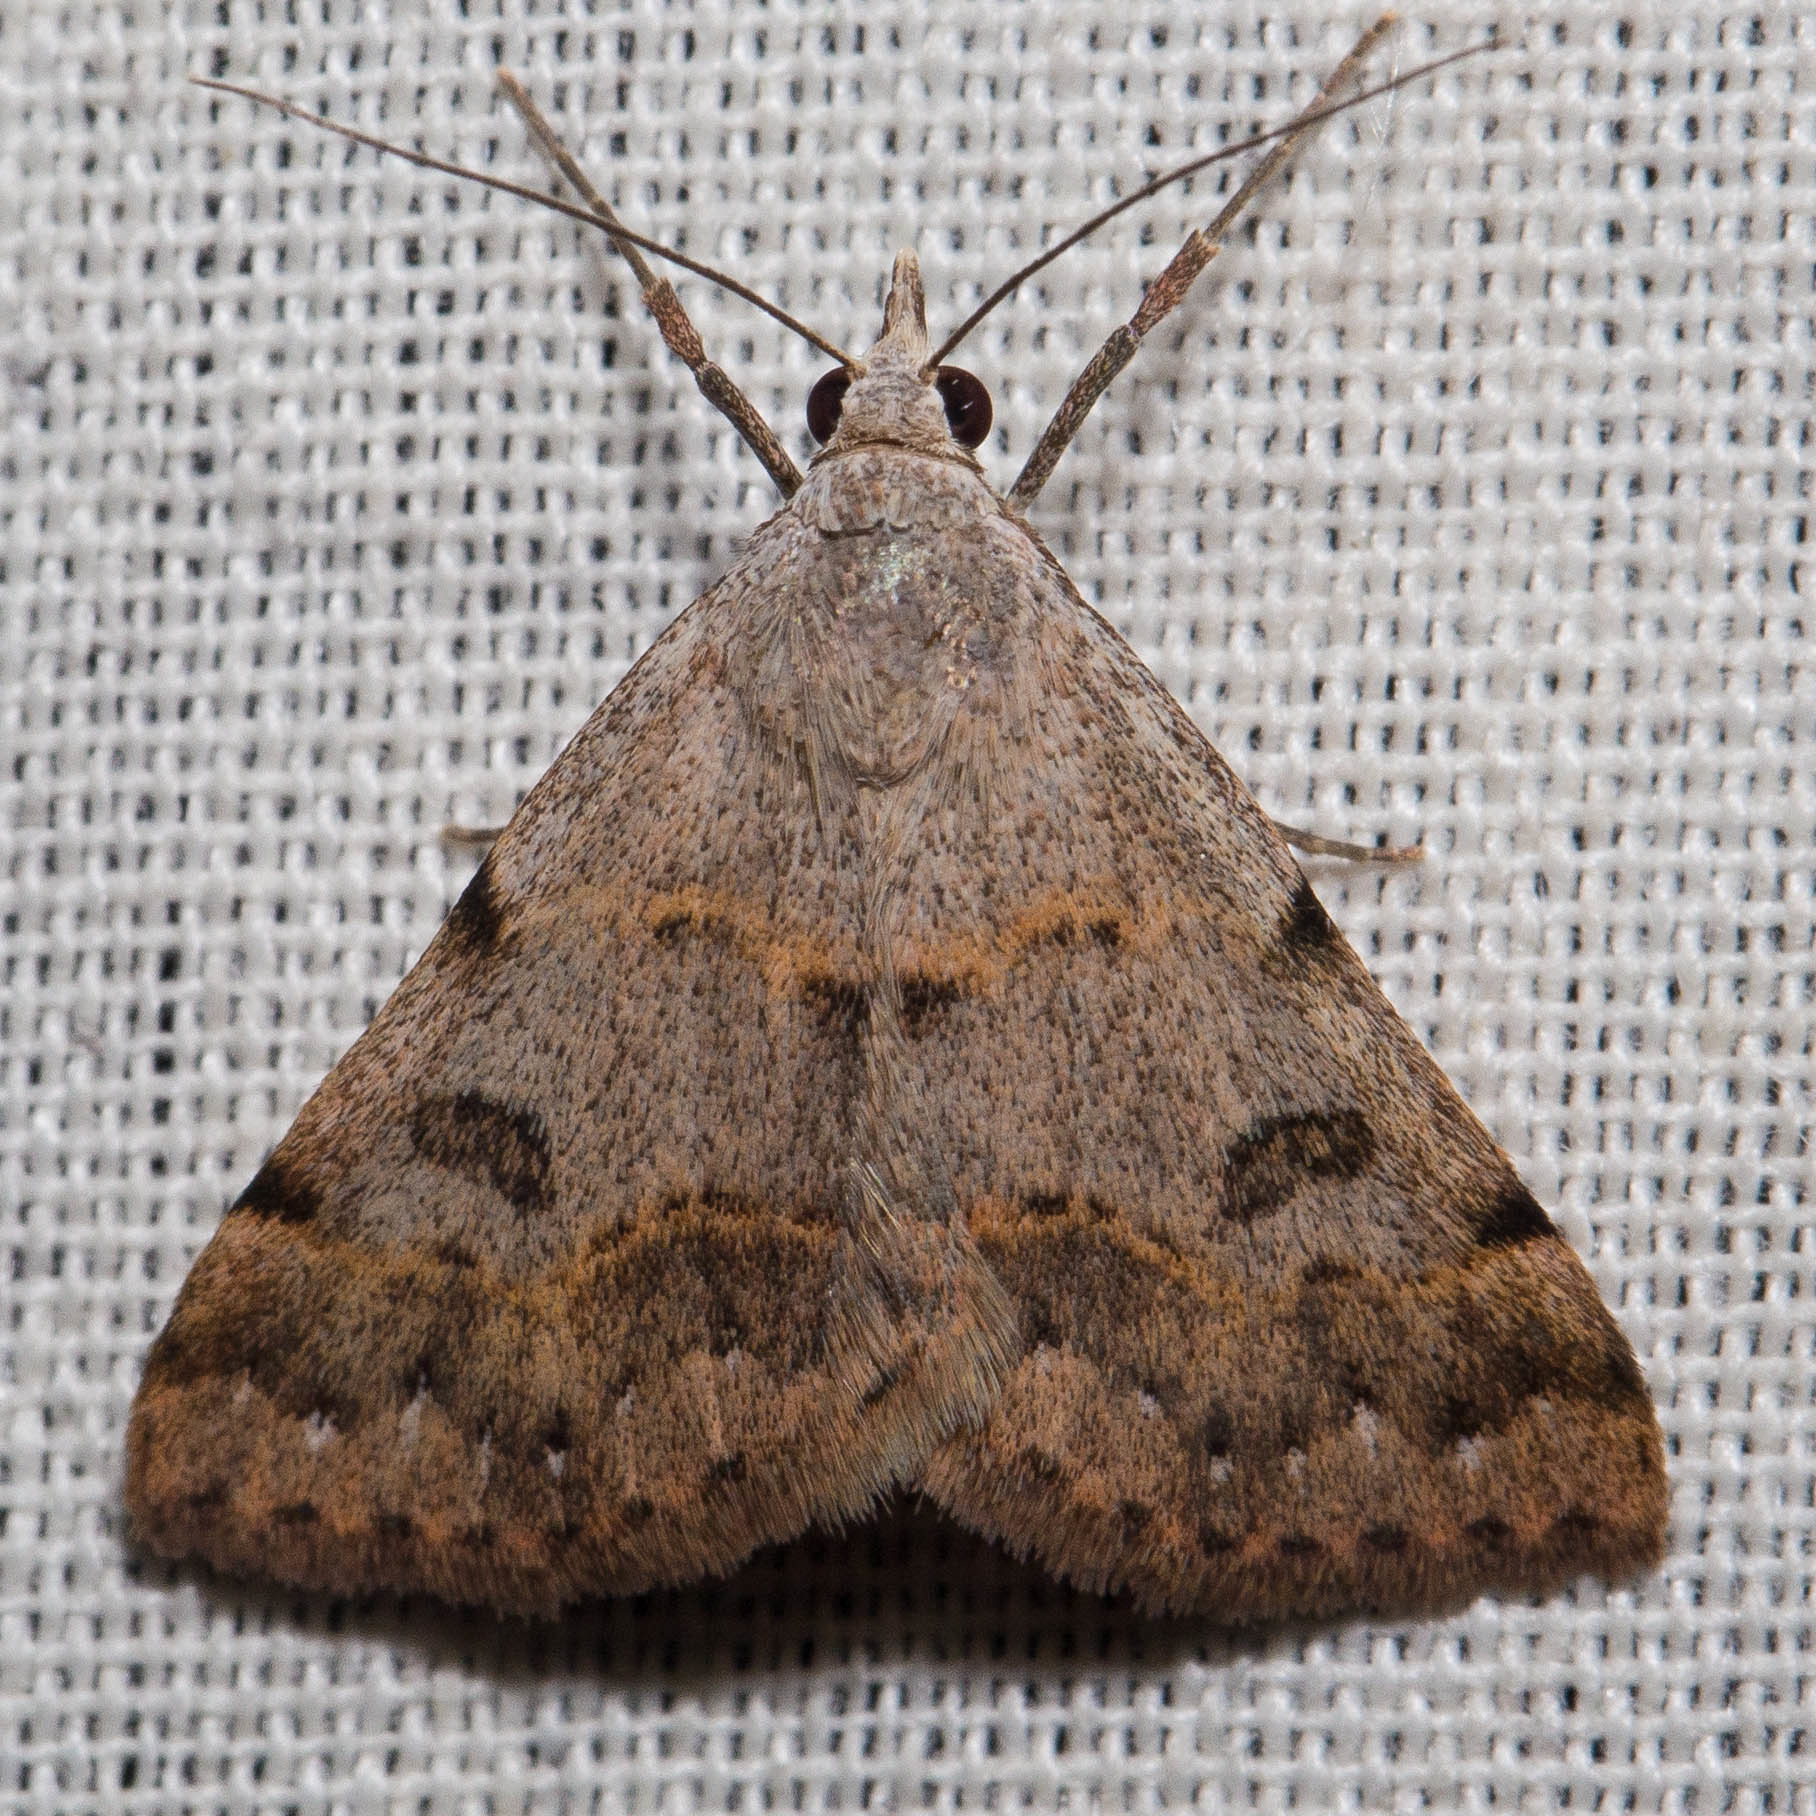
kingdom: Animalia
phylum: Arthropoda
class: Insecta
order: Lepidoptera
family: Erebidae
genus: Hemeroplanis
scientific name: Hemeroplanis historialis
